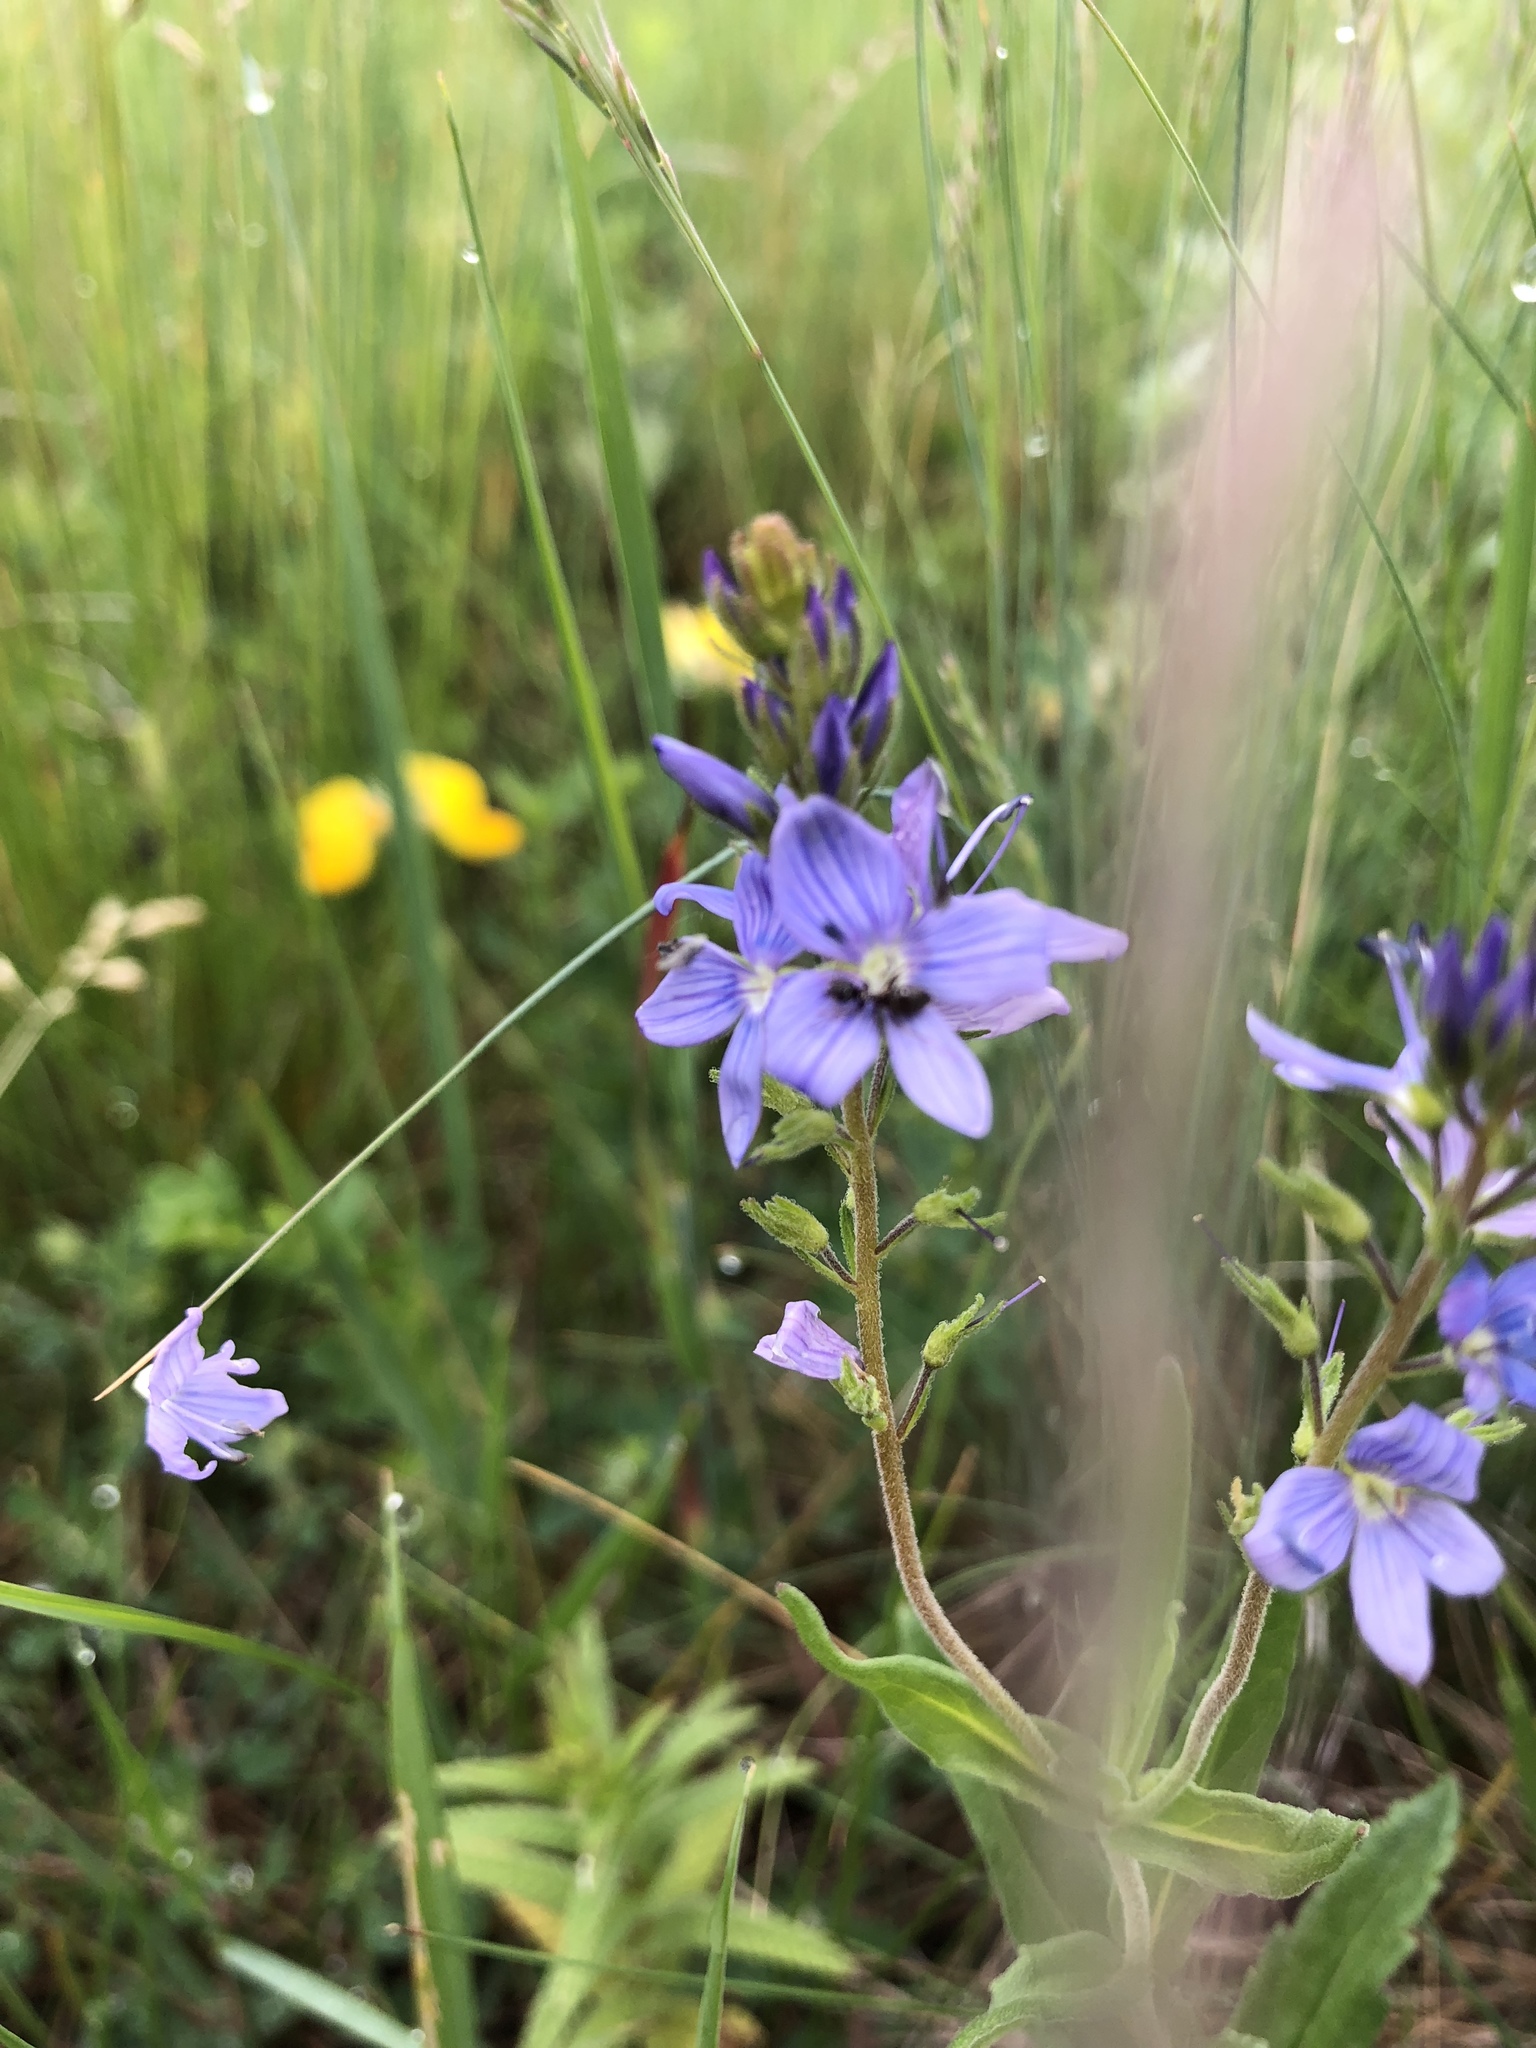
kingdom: Plantae
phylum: Tracheophyta
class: Magnoliopsida
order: Lamiales
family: Plantaginaceae
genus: Veronica
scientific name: Veronica austriaca
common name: Large speedwell
